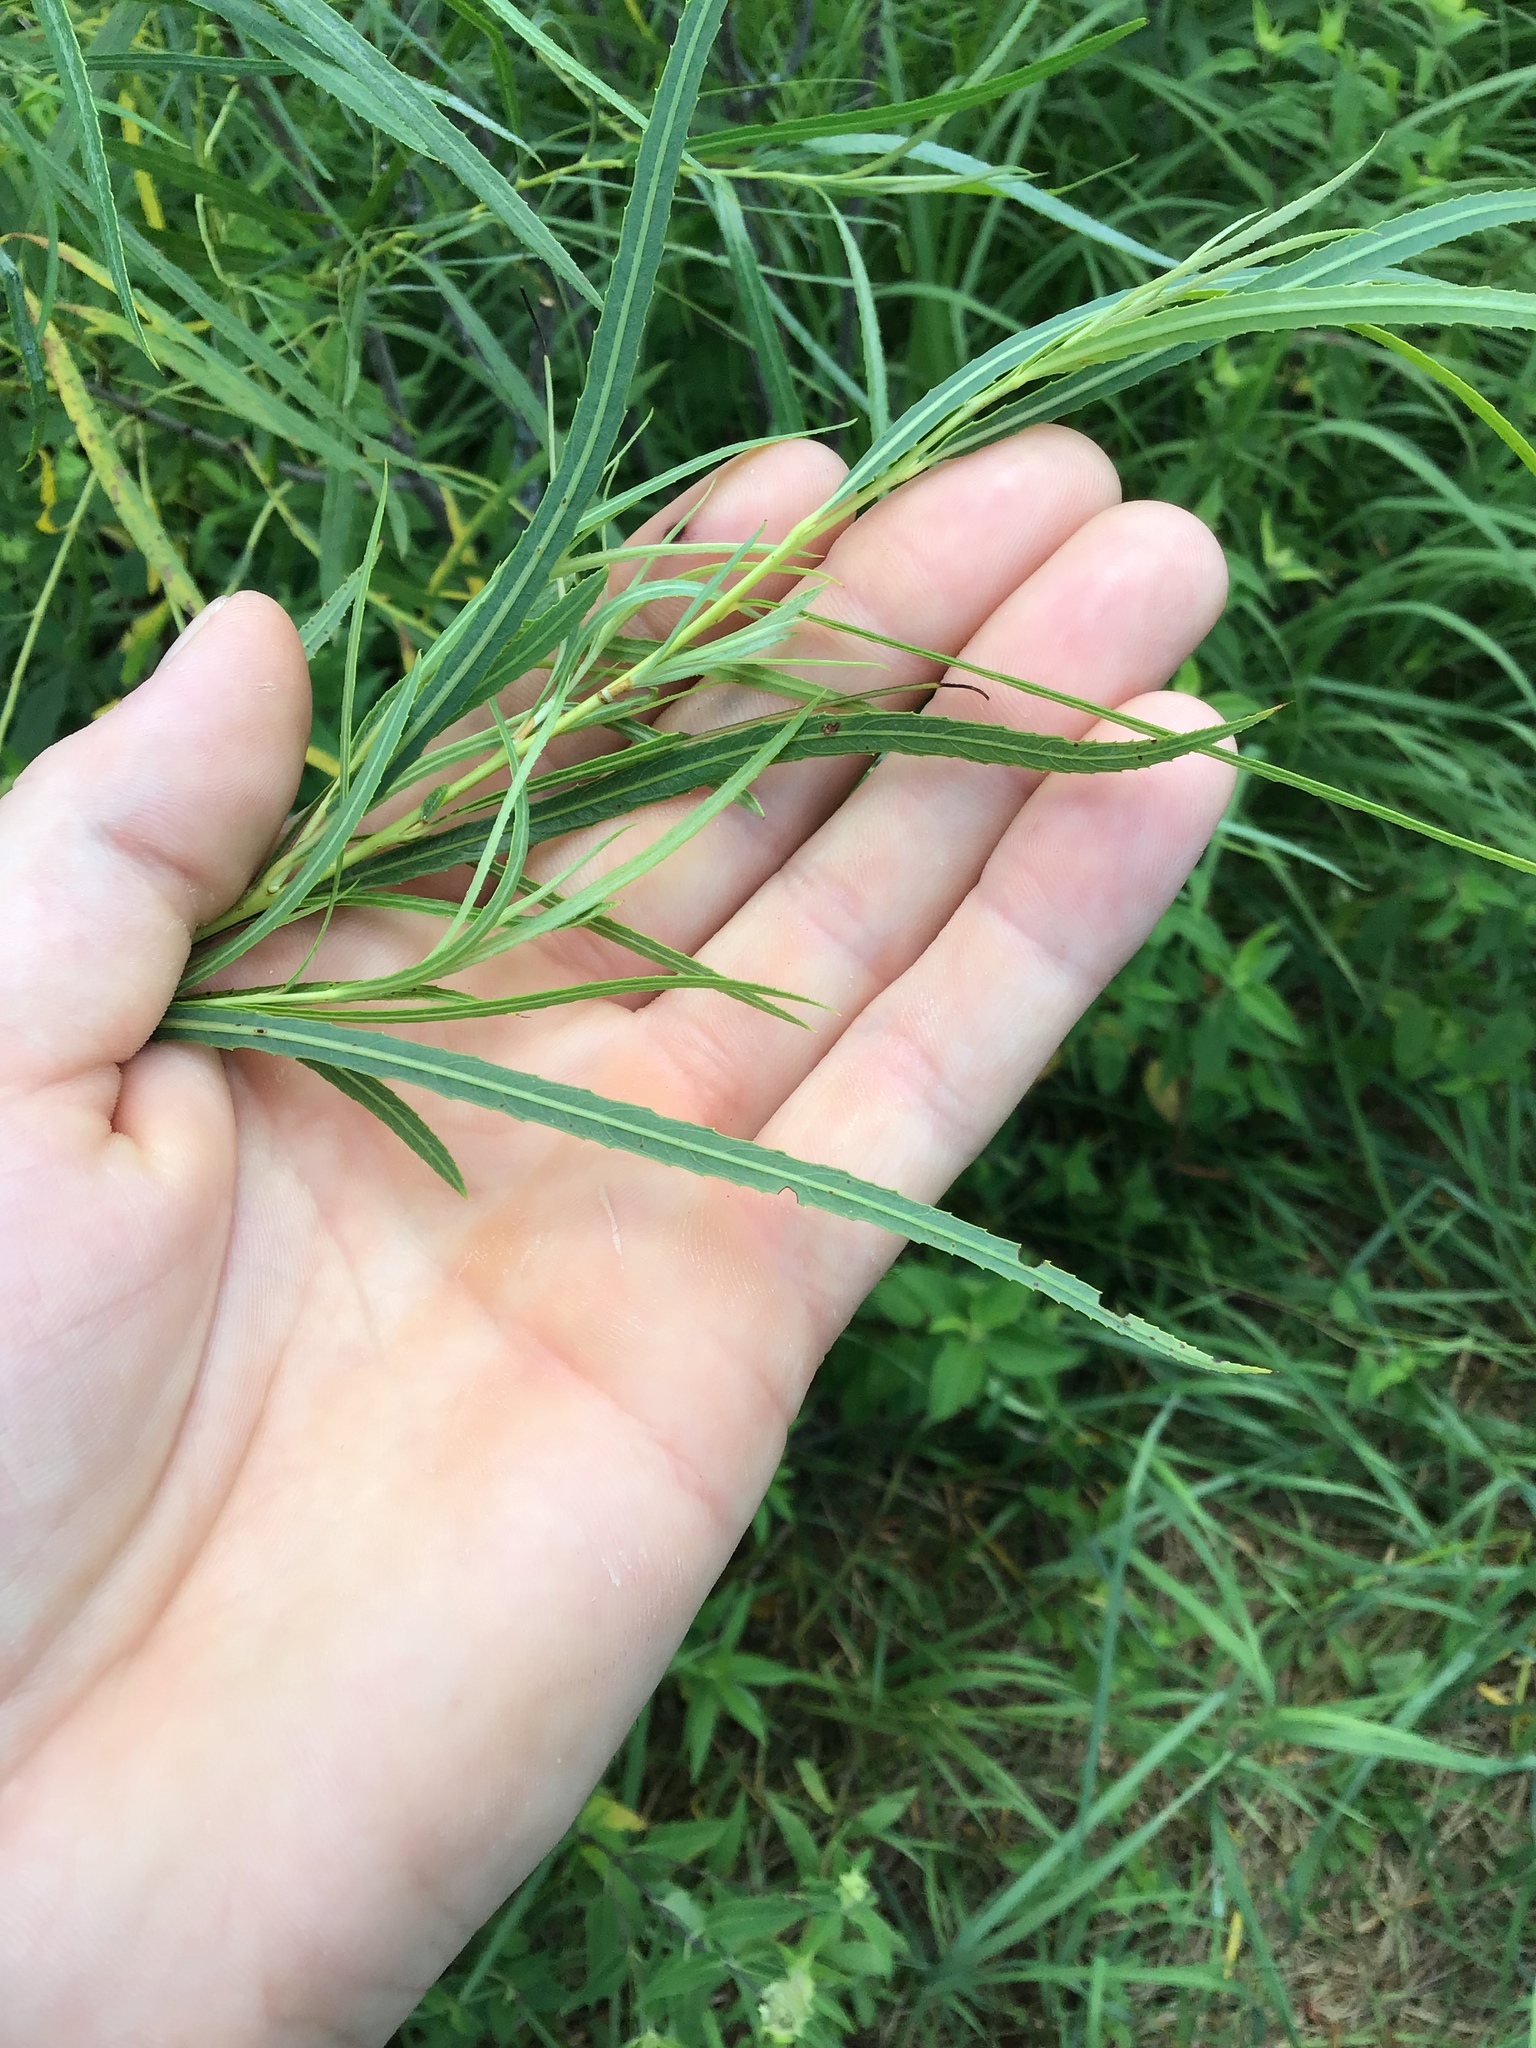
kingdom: Plantae
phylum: Tracheophyta
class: Magnoliopsida
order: Malpighiales
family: Salicaceae
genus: Salix
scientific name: Salix interior
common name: Sandbar willow
